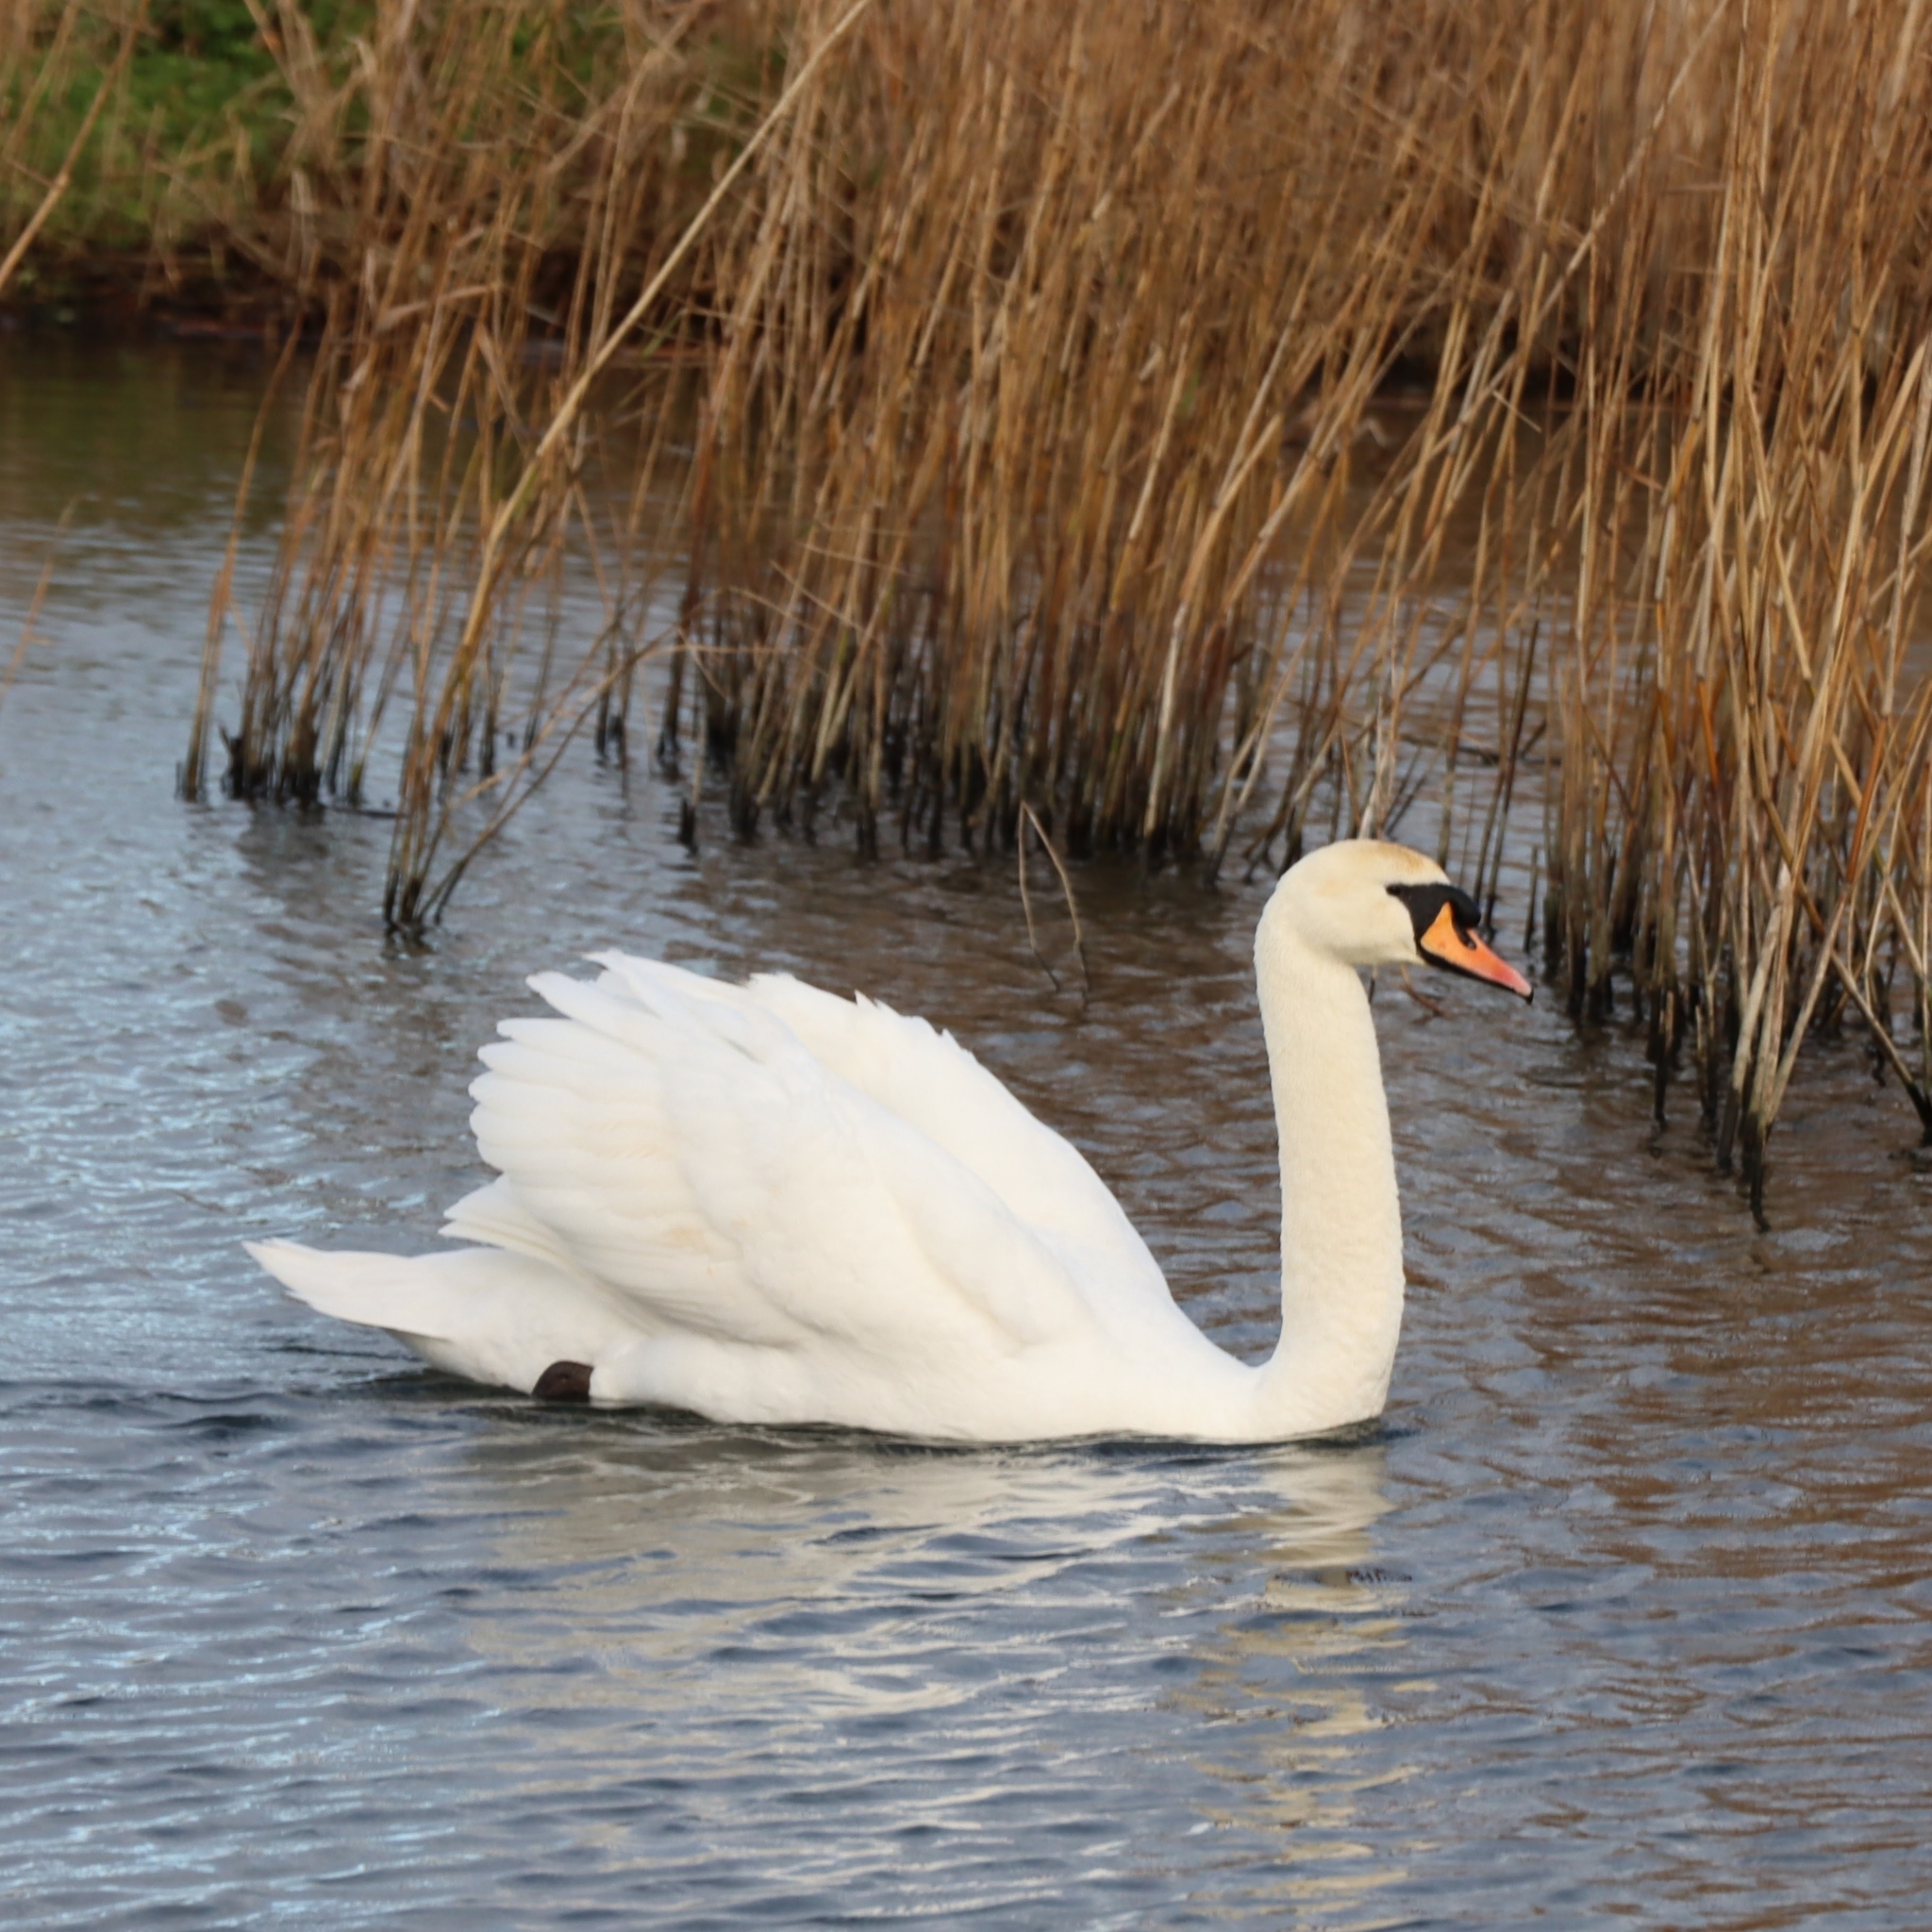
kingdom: Animalia
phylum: Chordata
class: Aves
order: Anseriformes
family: Anatidae
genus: Cygnus
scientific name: Cygnus olor
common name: Mute swan
